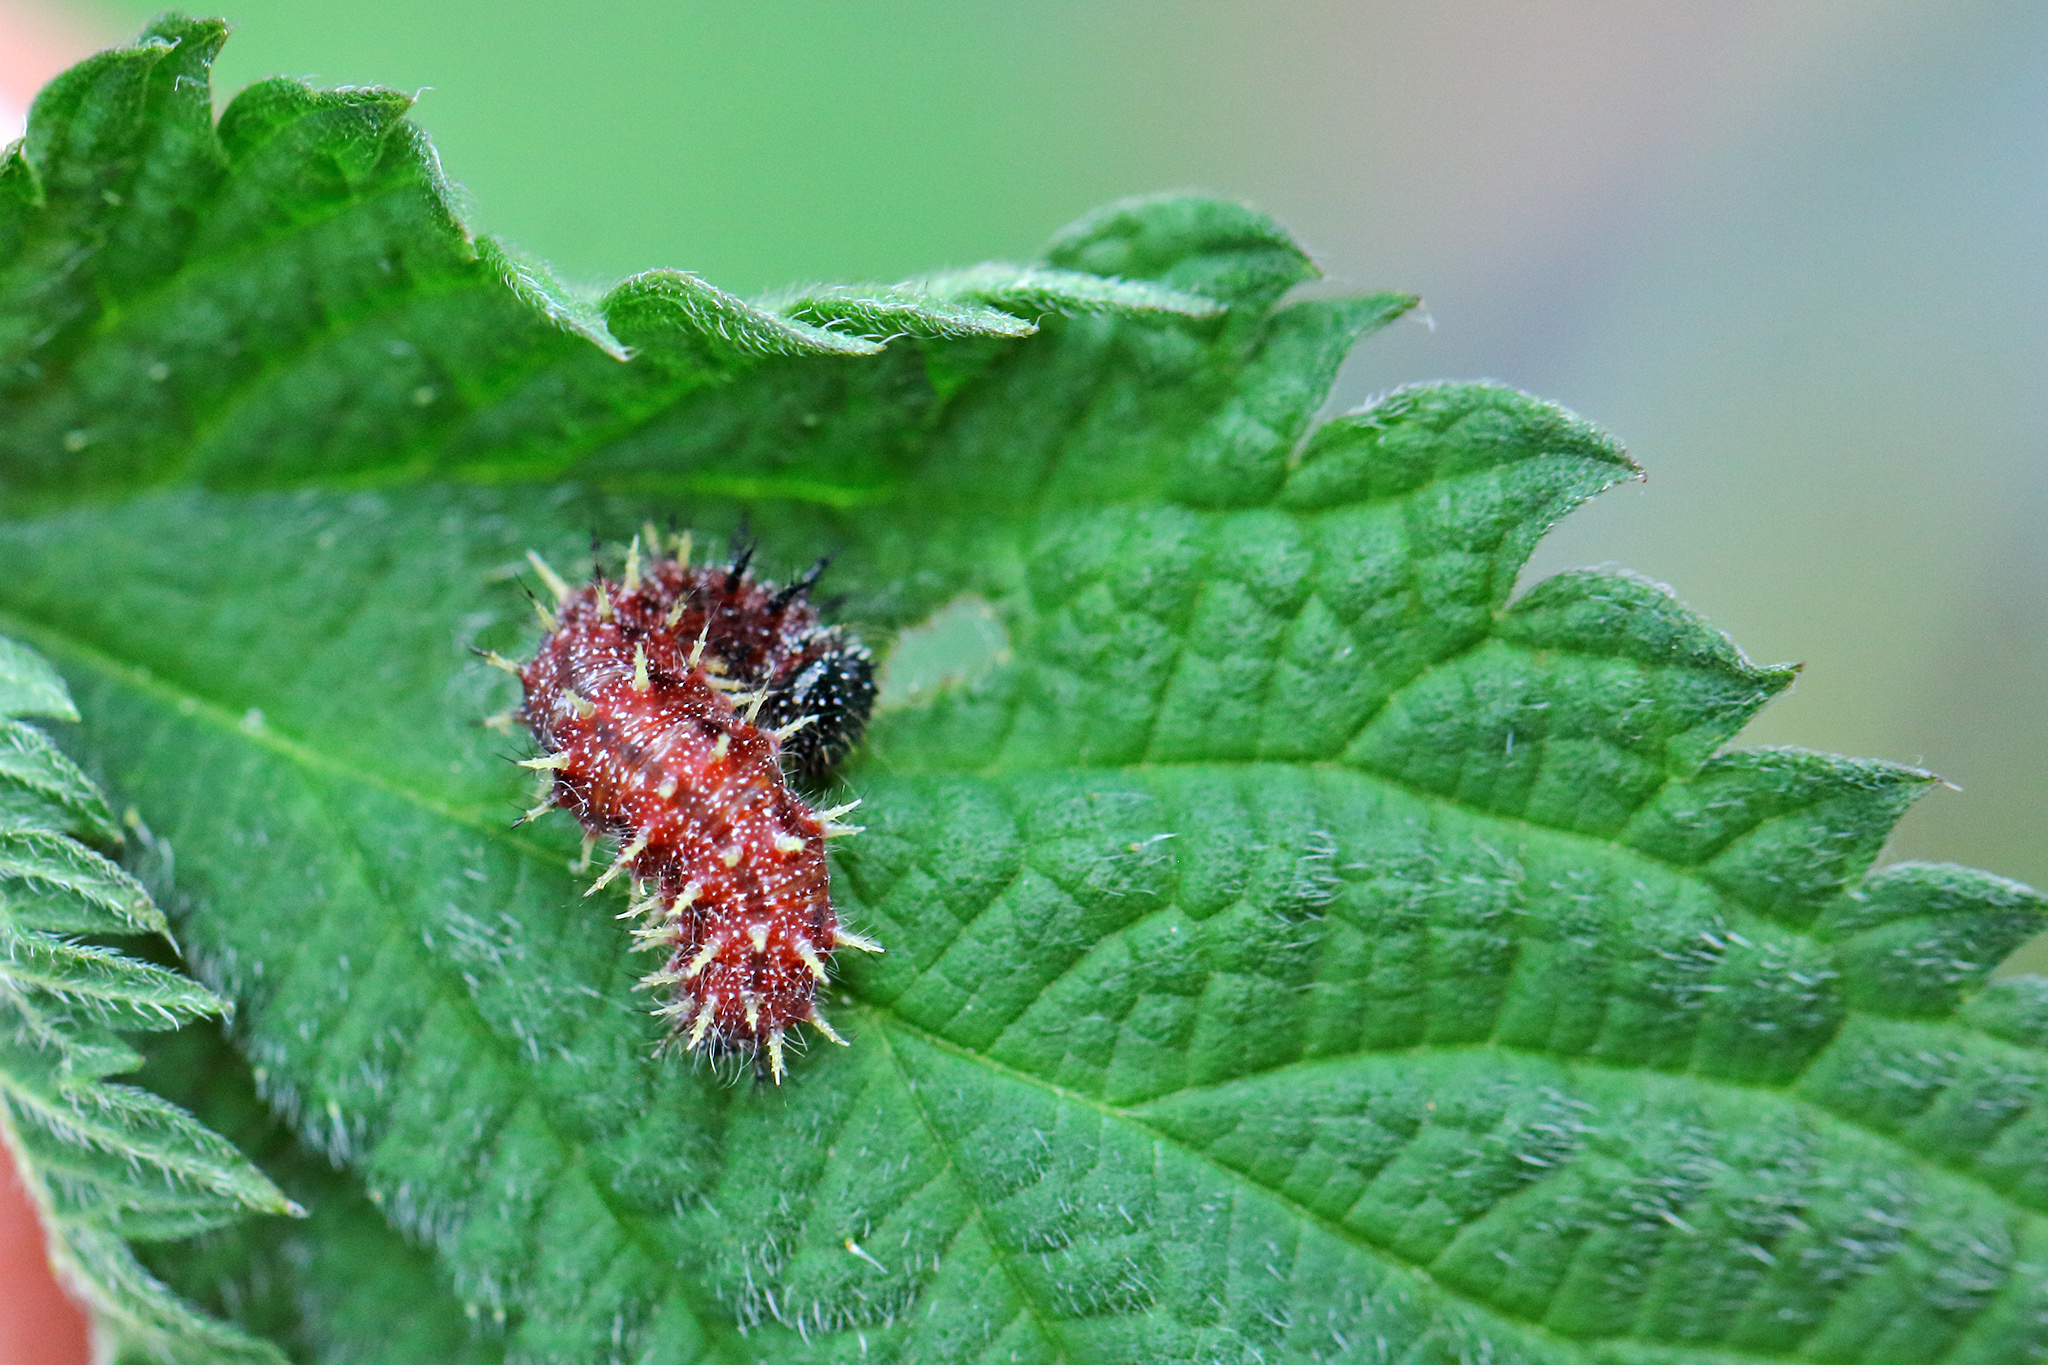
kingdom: Animalia
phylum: Arthropoda
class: Insecta
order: Lepidoptera
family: Nymphalidae
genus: Vanessa
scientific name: Vanessa atalanta
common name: Red admiral
